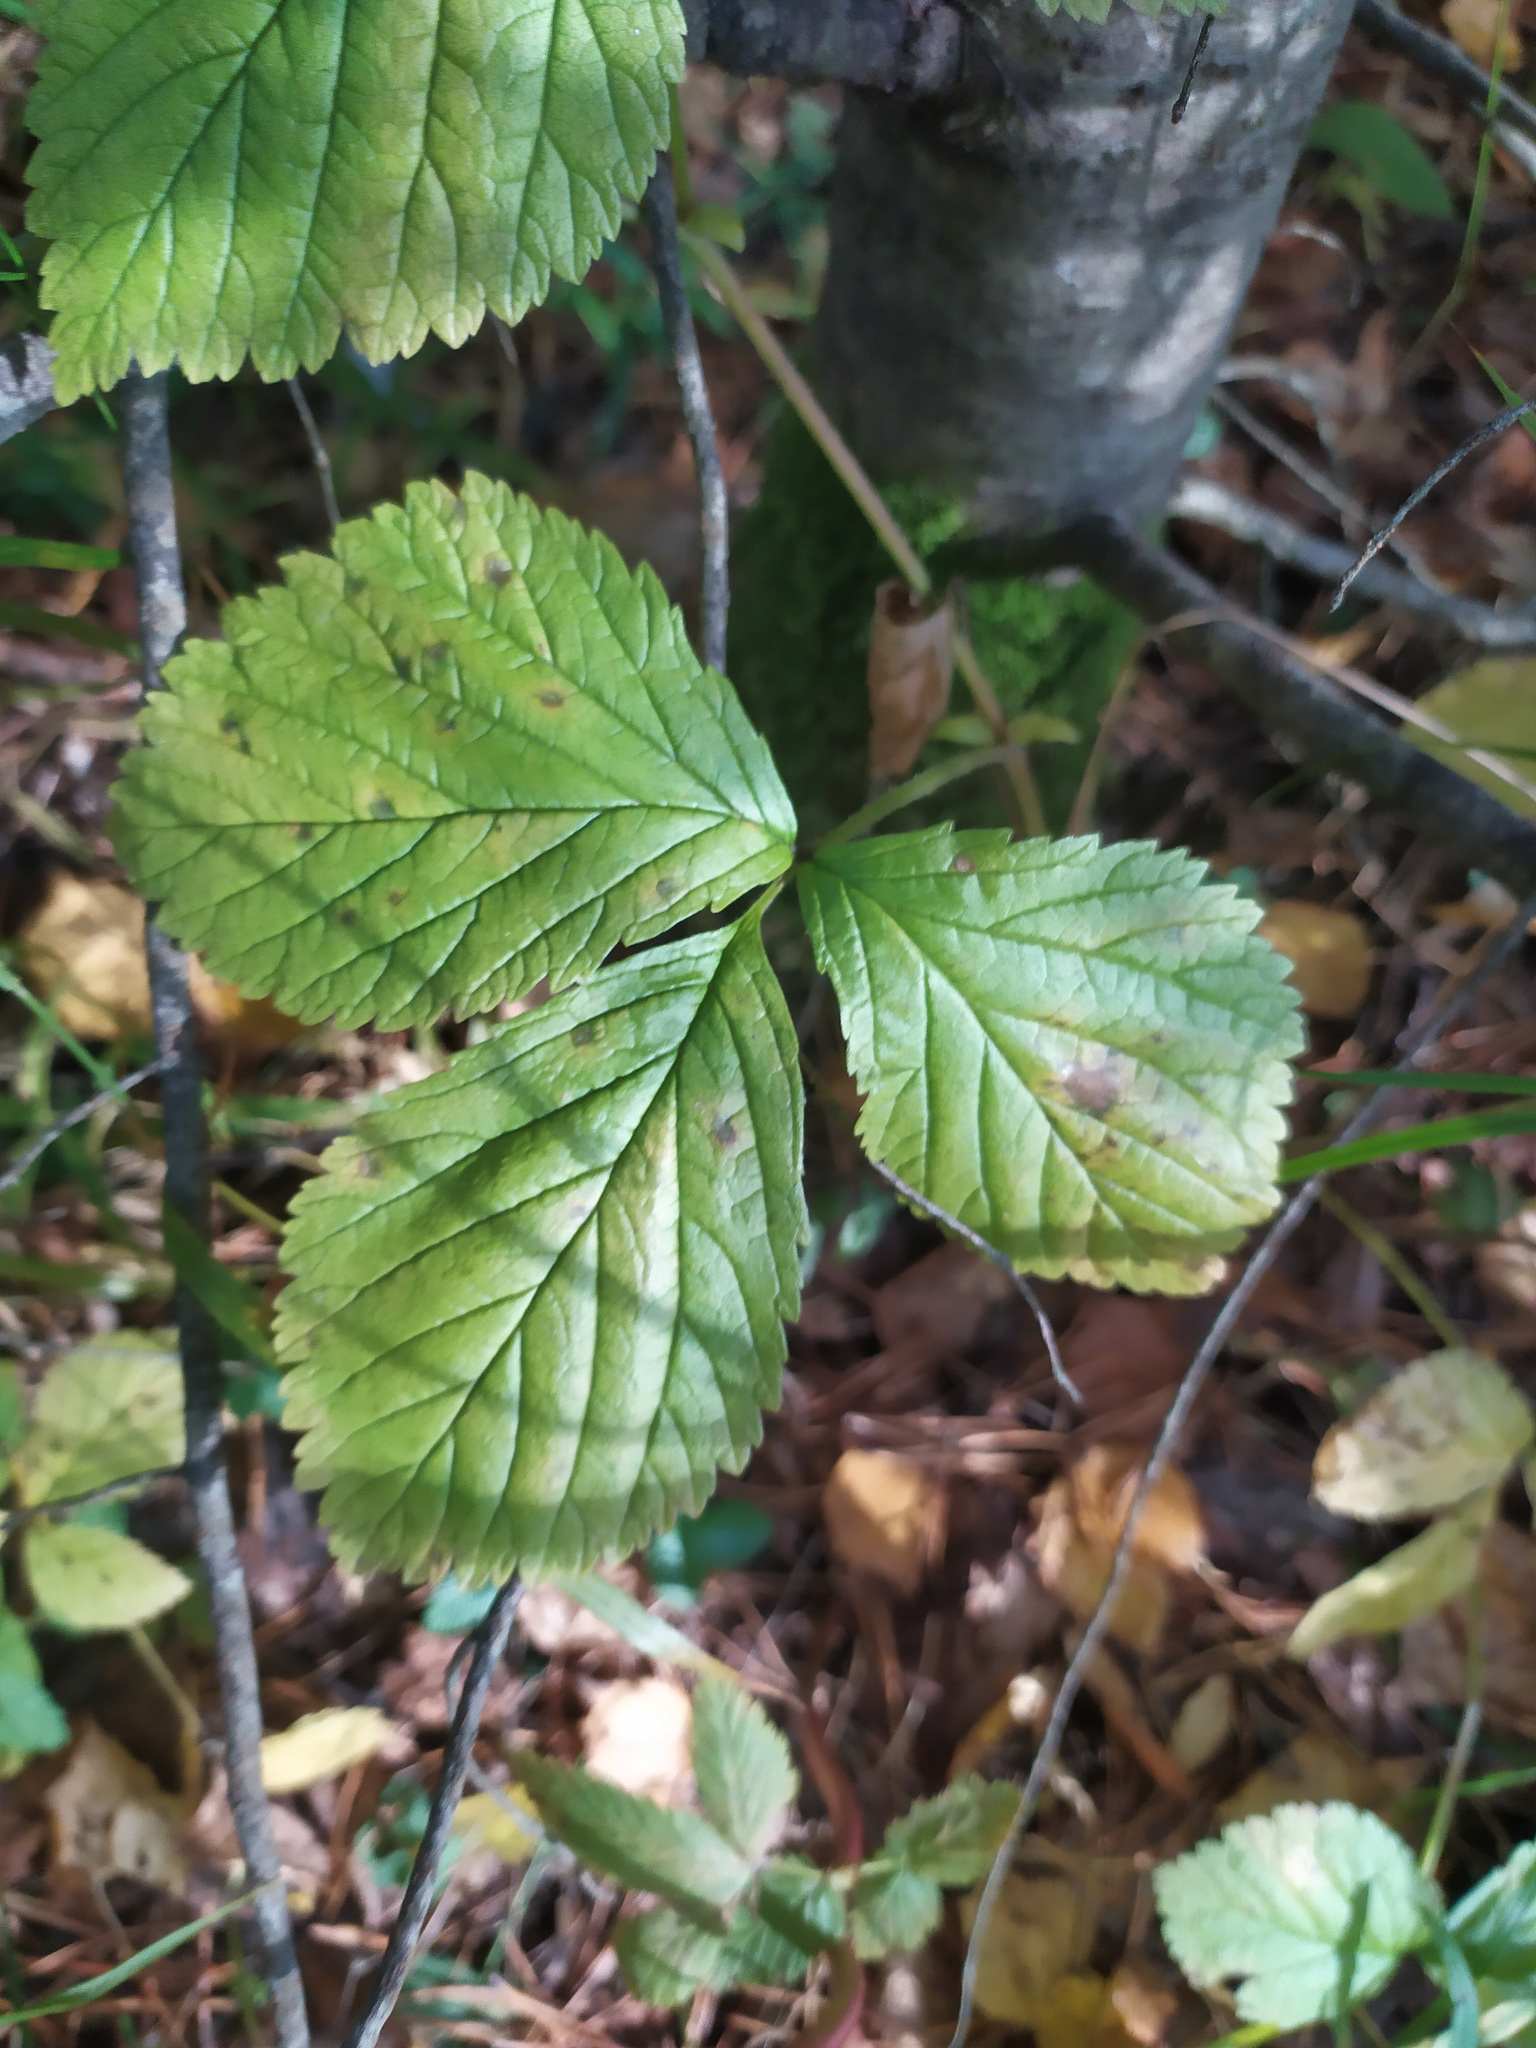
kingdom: Plantae
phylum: Tracheophyta
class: Magnoliopsida
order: Rosales
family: Rosaceae
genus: Rubus
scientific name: Rubus saxatilis
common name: Stone bramble
